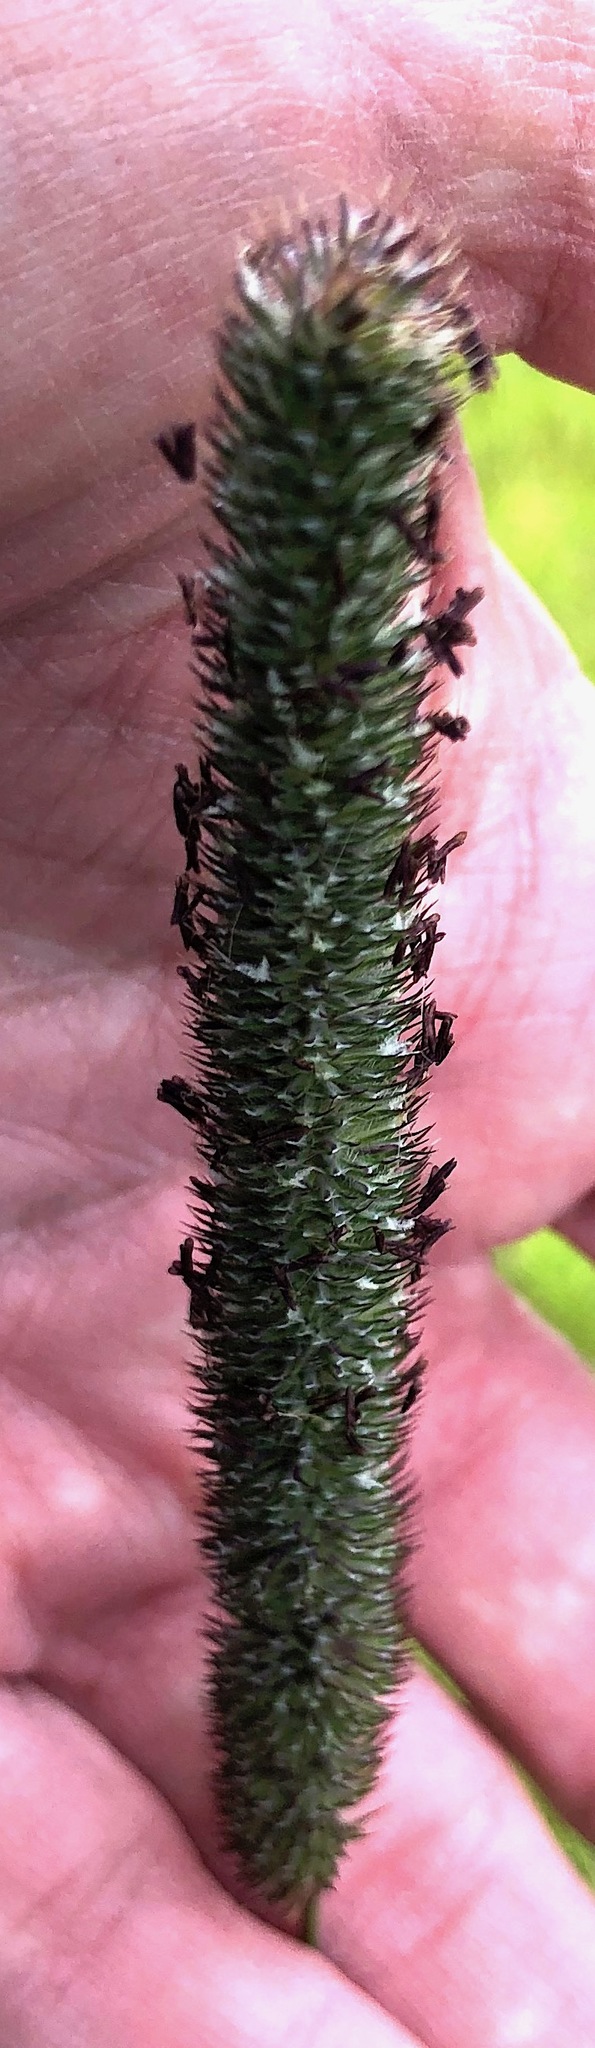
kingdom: Plantae
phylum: Tracheophyta
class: Liliopsida
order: Poales
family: Poaceae
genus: Phleum
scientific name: Phleum pratense
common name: Timothy grass
